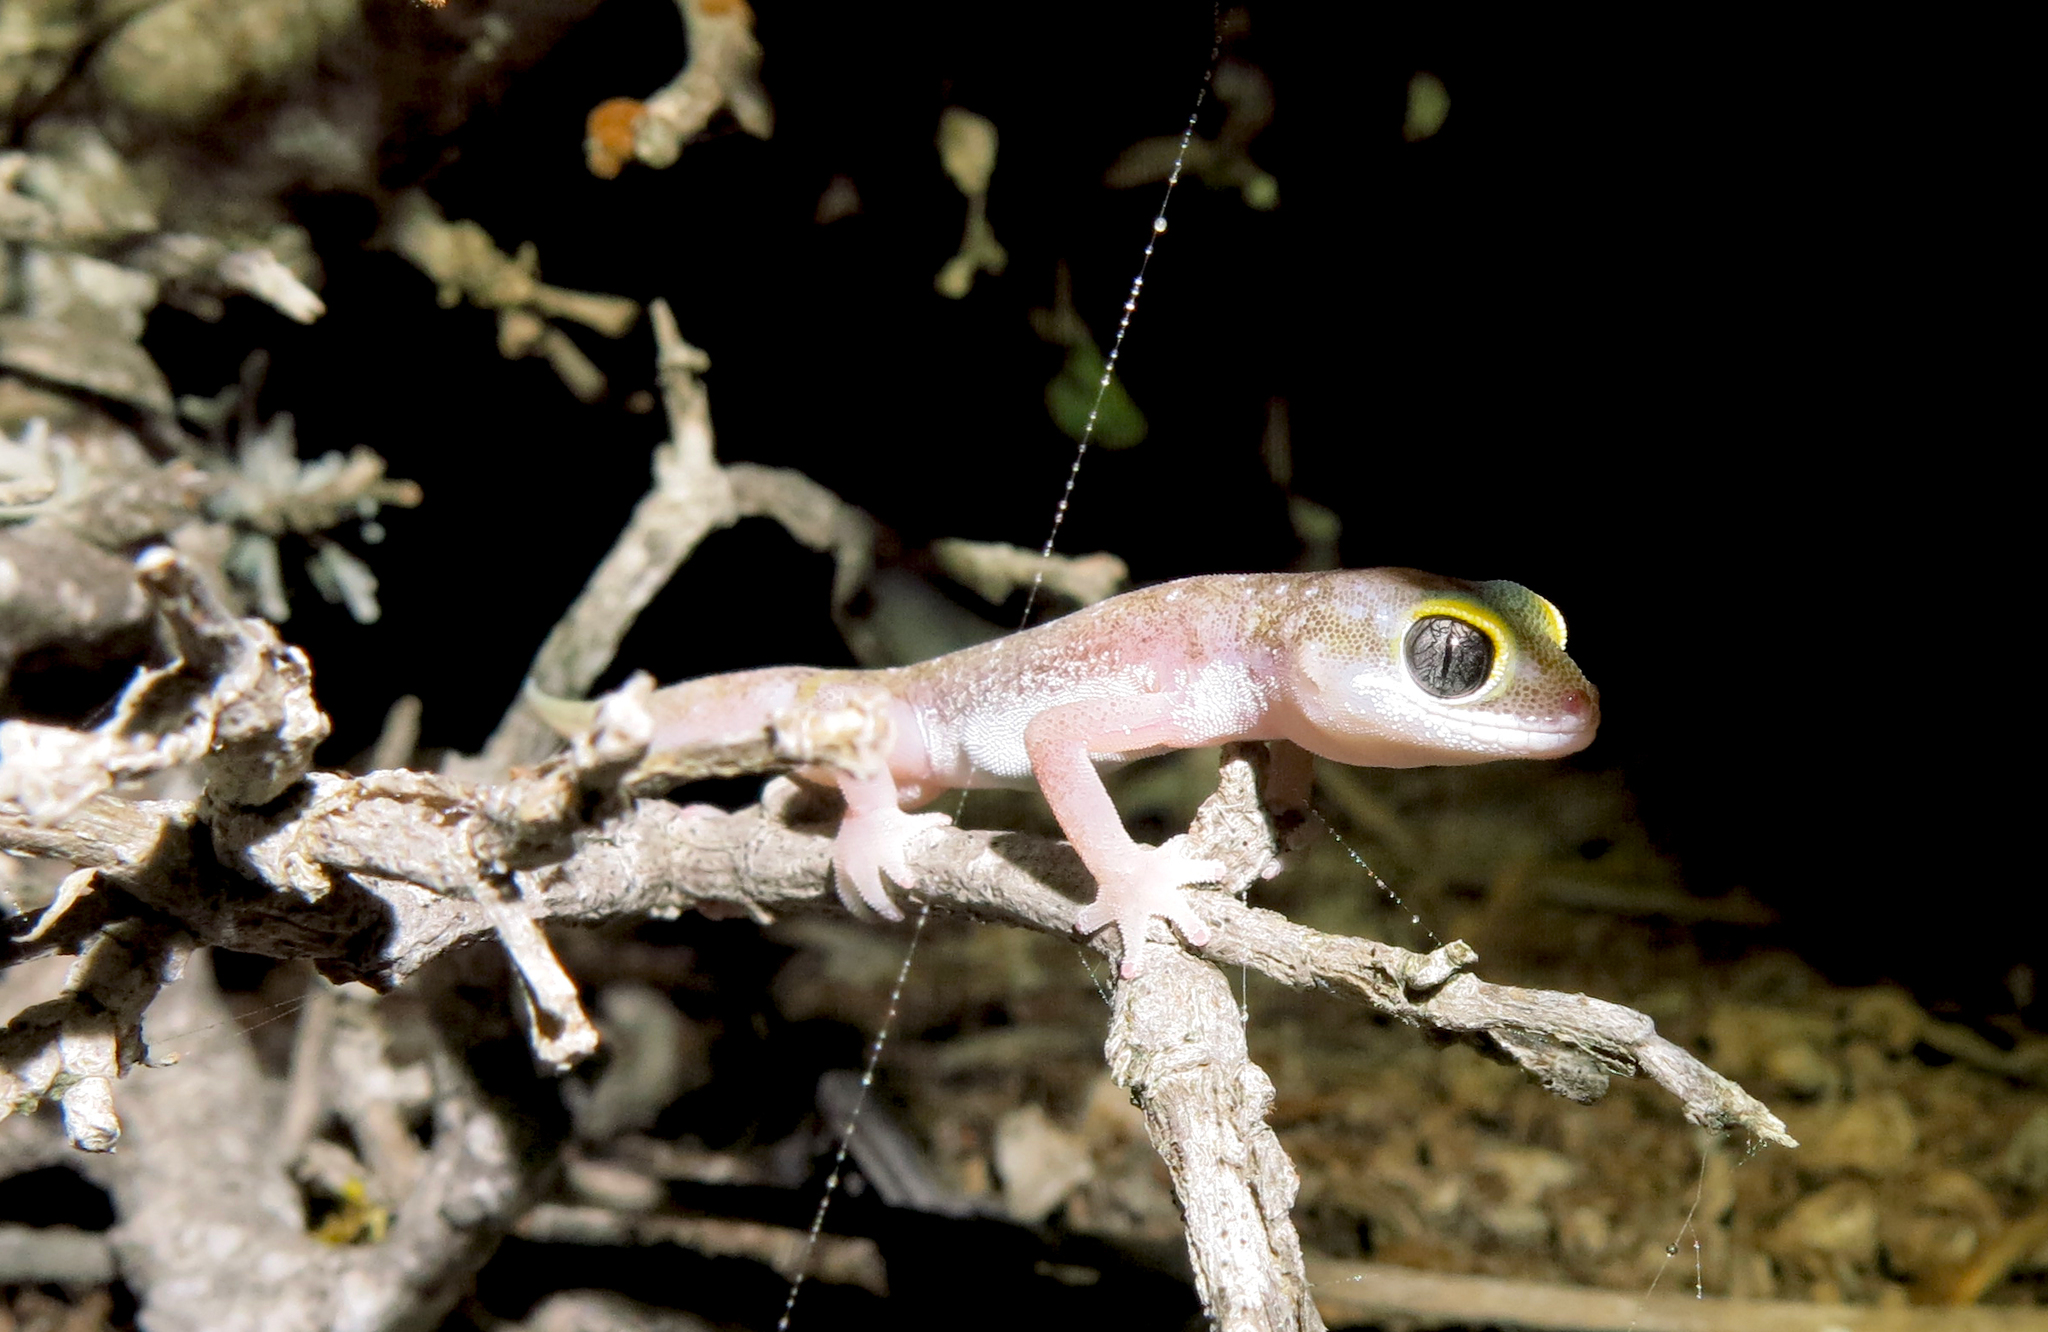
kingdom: Animalia
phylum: Chordata
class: Squamata
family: Gekkonidae
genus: Pachydactylus
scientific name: Pachydactylus austeni
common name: Austen's gecko
